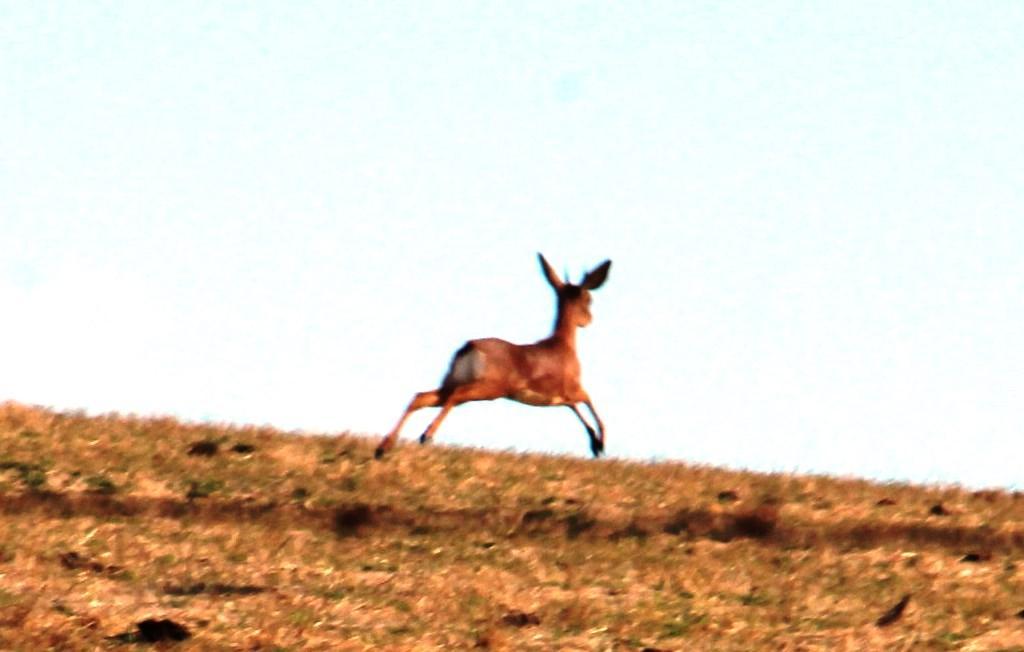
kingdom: Animalia
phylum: Chordata
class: Mammalia
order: Artiodactyla
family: Bovidae
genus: Raphicerus
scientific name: Raphicerus campestris
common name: Steenbok
